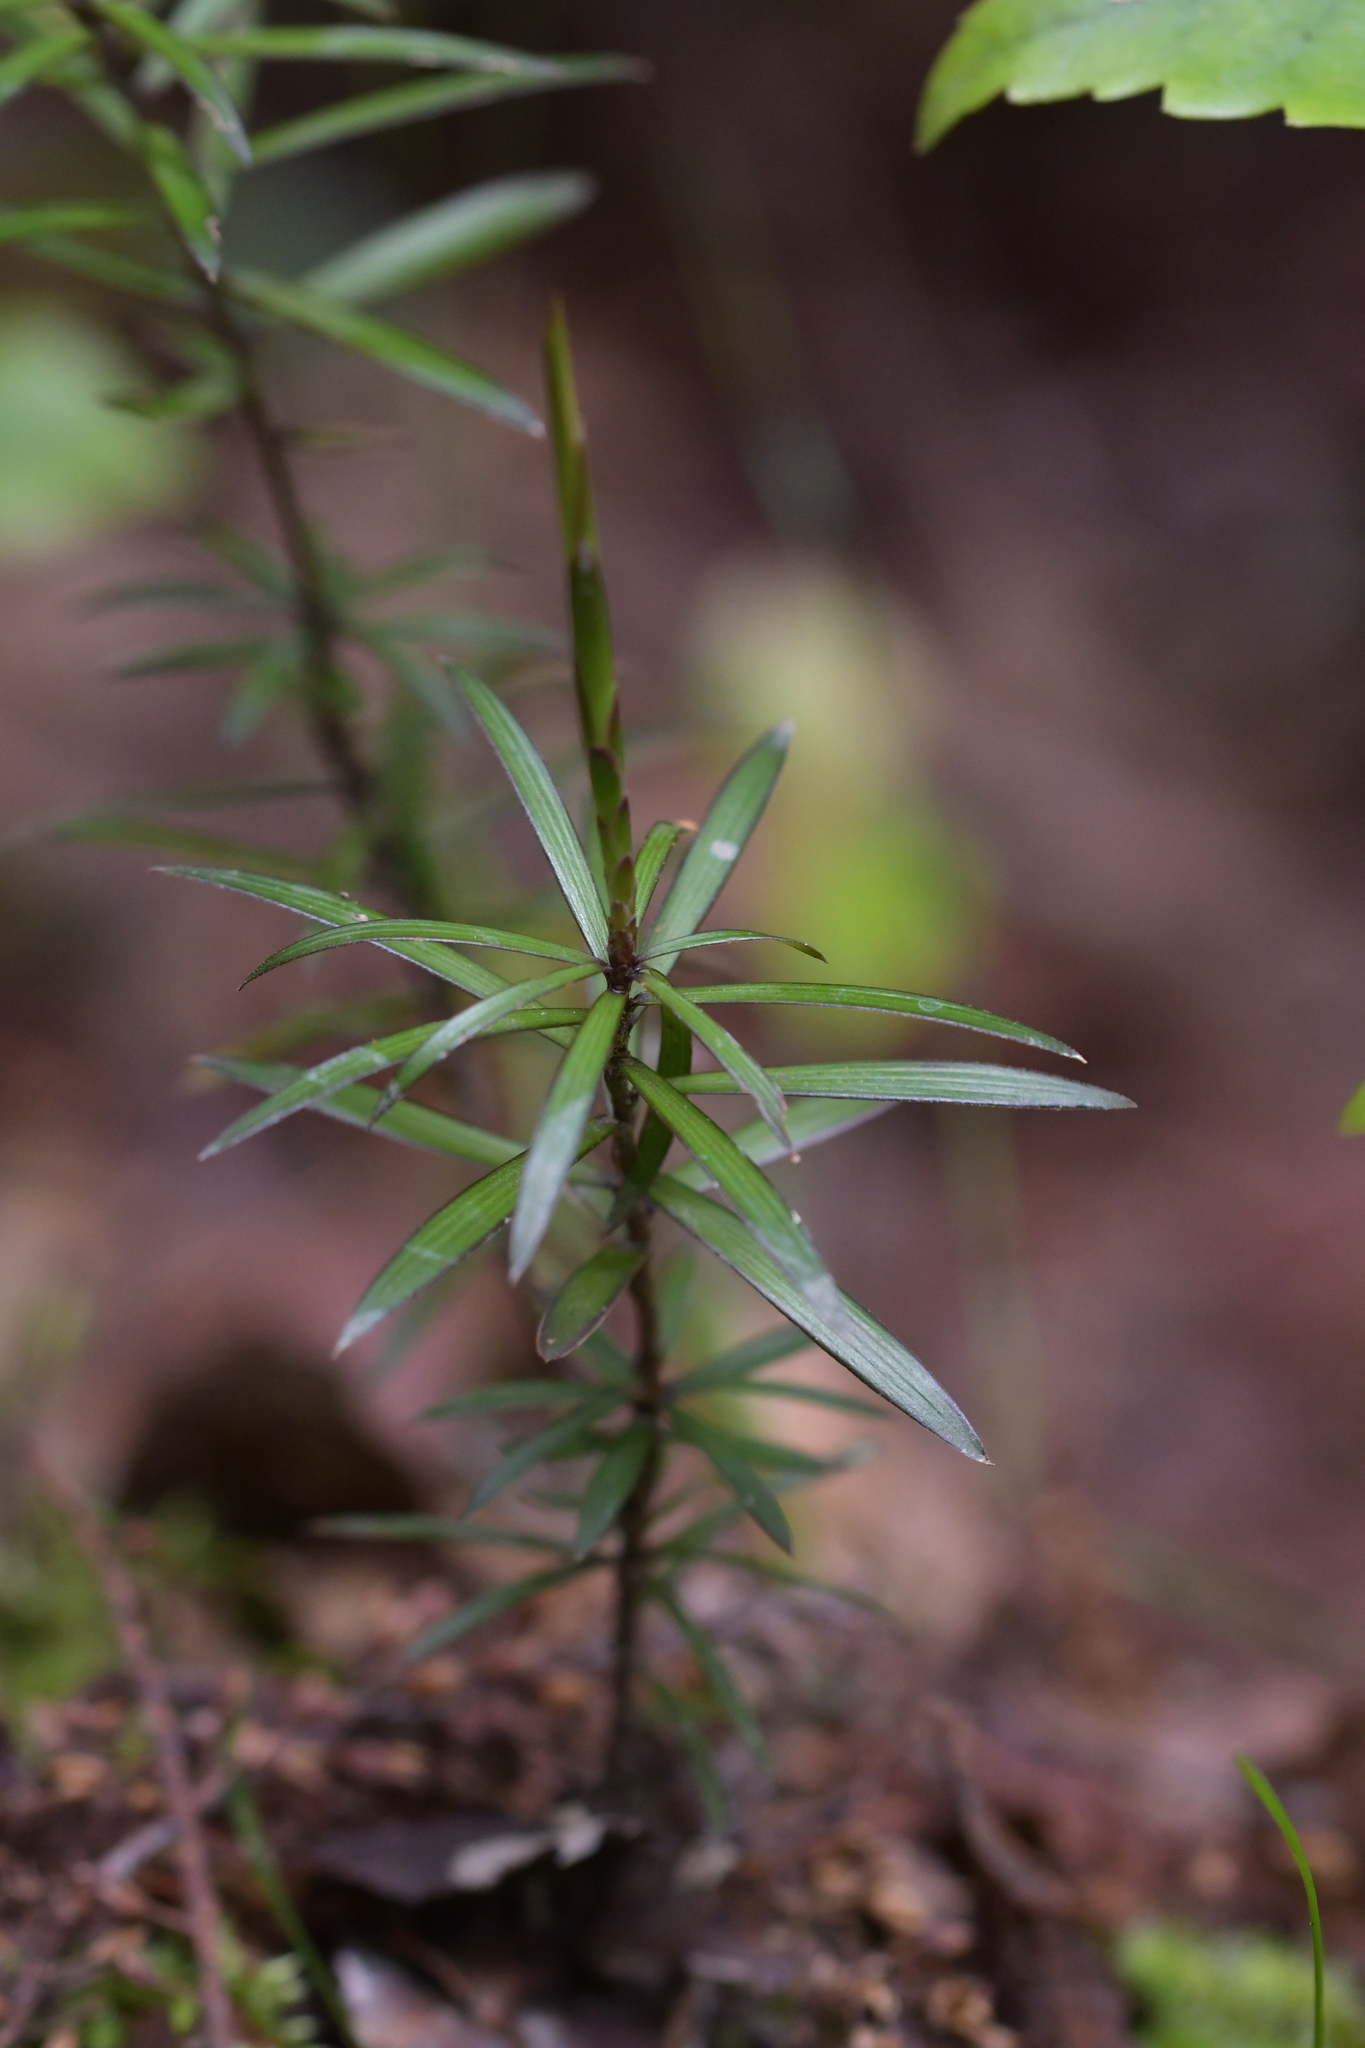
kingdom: Plantae
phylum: Tracheophyta
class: Magnoliopsida
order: Ericales
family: Ericaceae
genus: Leucopogon
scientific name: Leucopogon fasciculatus
